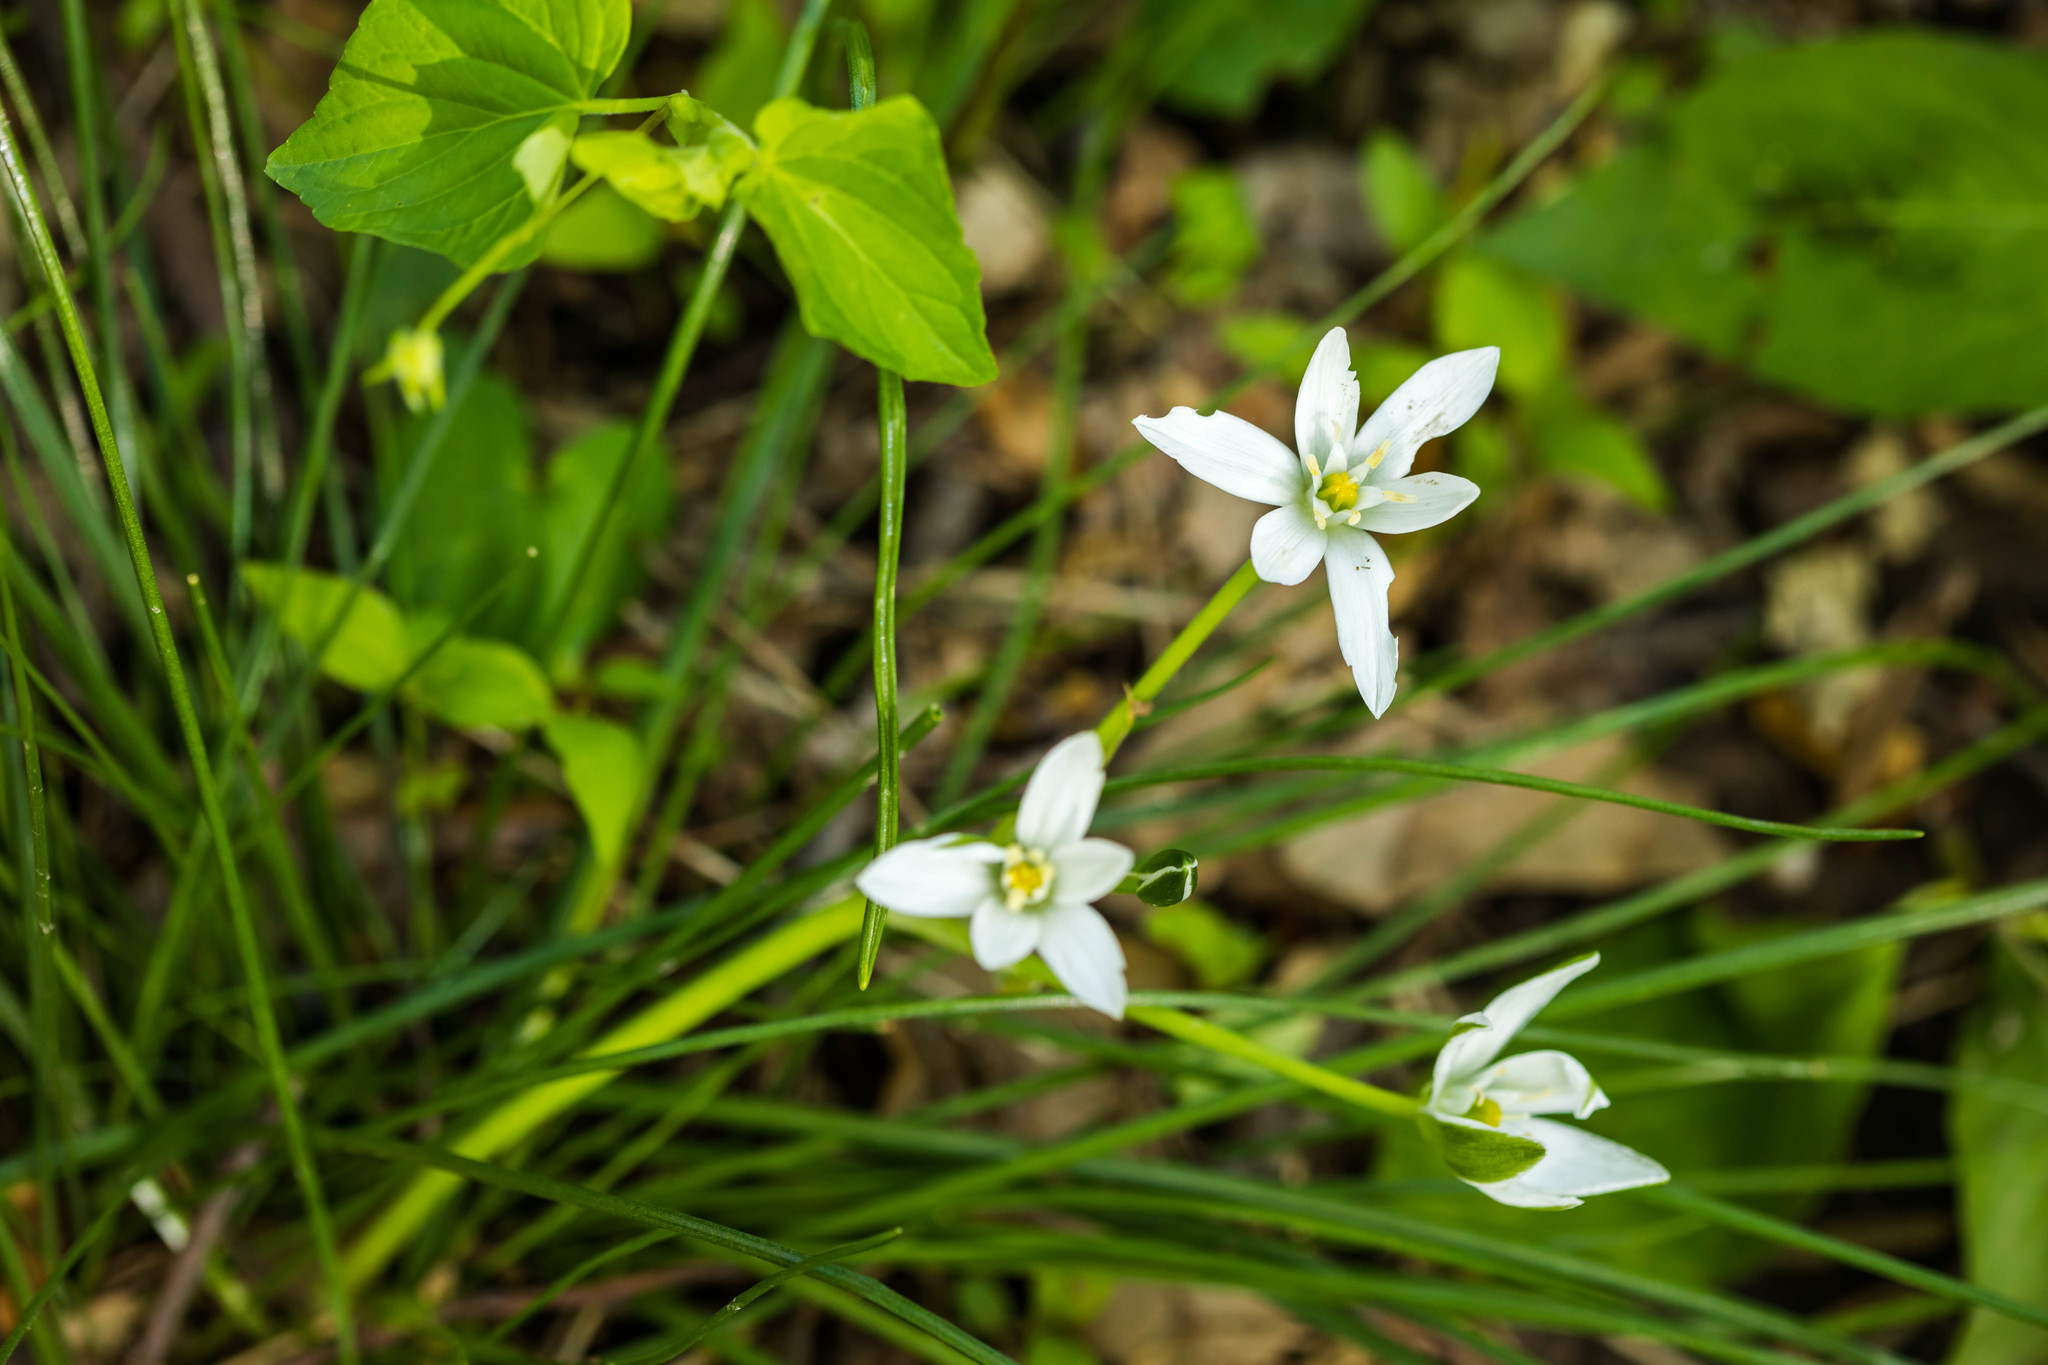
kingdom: Plantae
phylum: Tracheophyta
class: Liliopsida
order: Asparagales
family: Asparagaceae
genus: Ornithogalum
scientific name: Ornithogalum umbellatum
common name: Garden star-of-bethlehem
